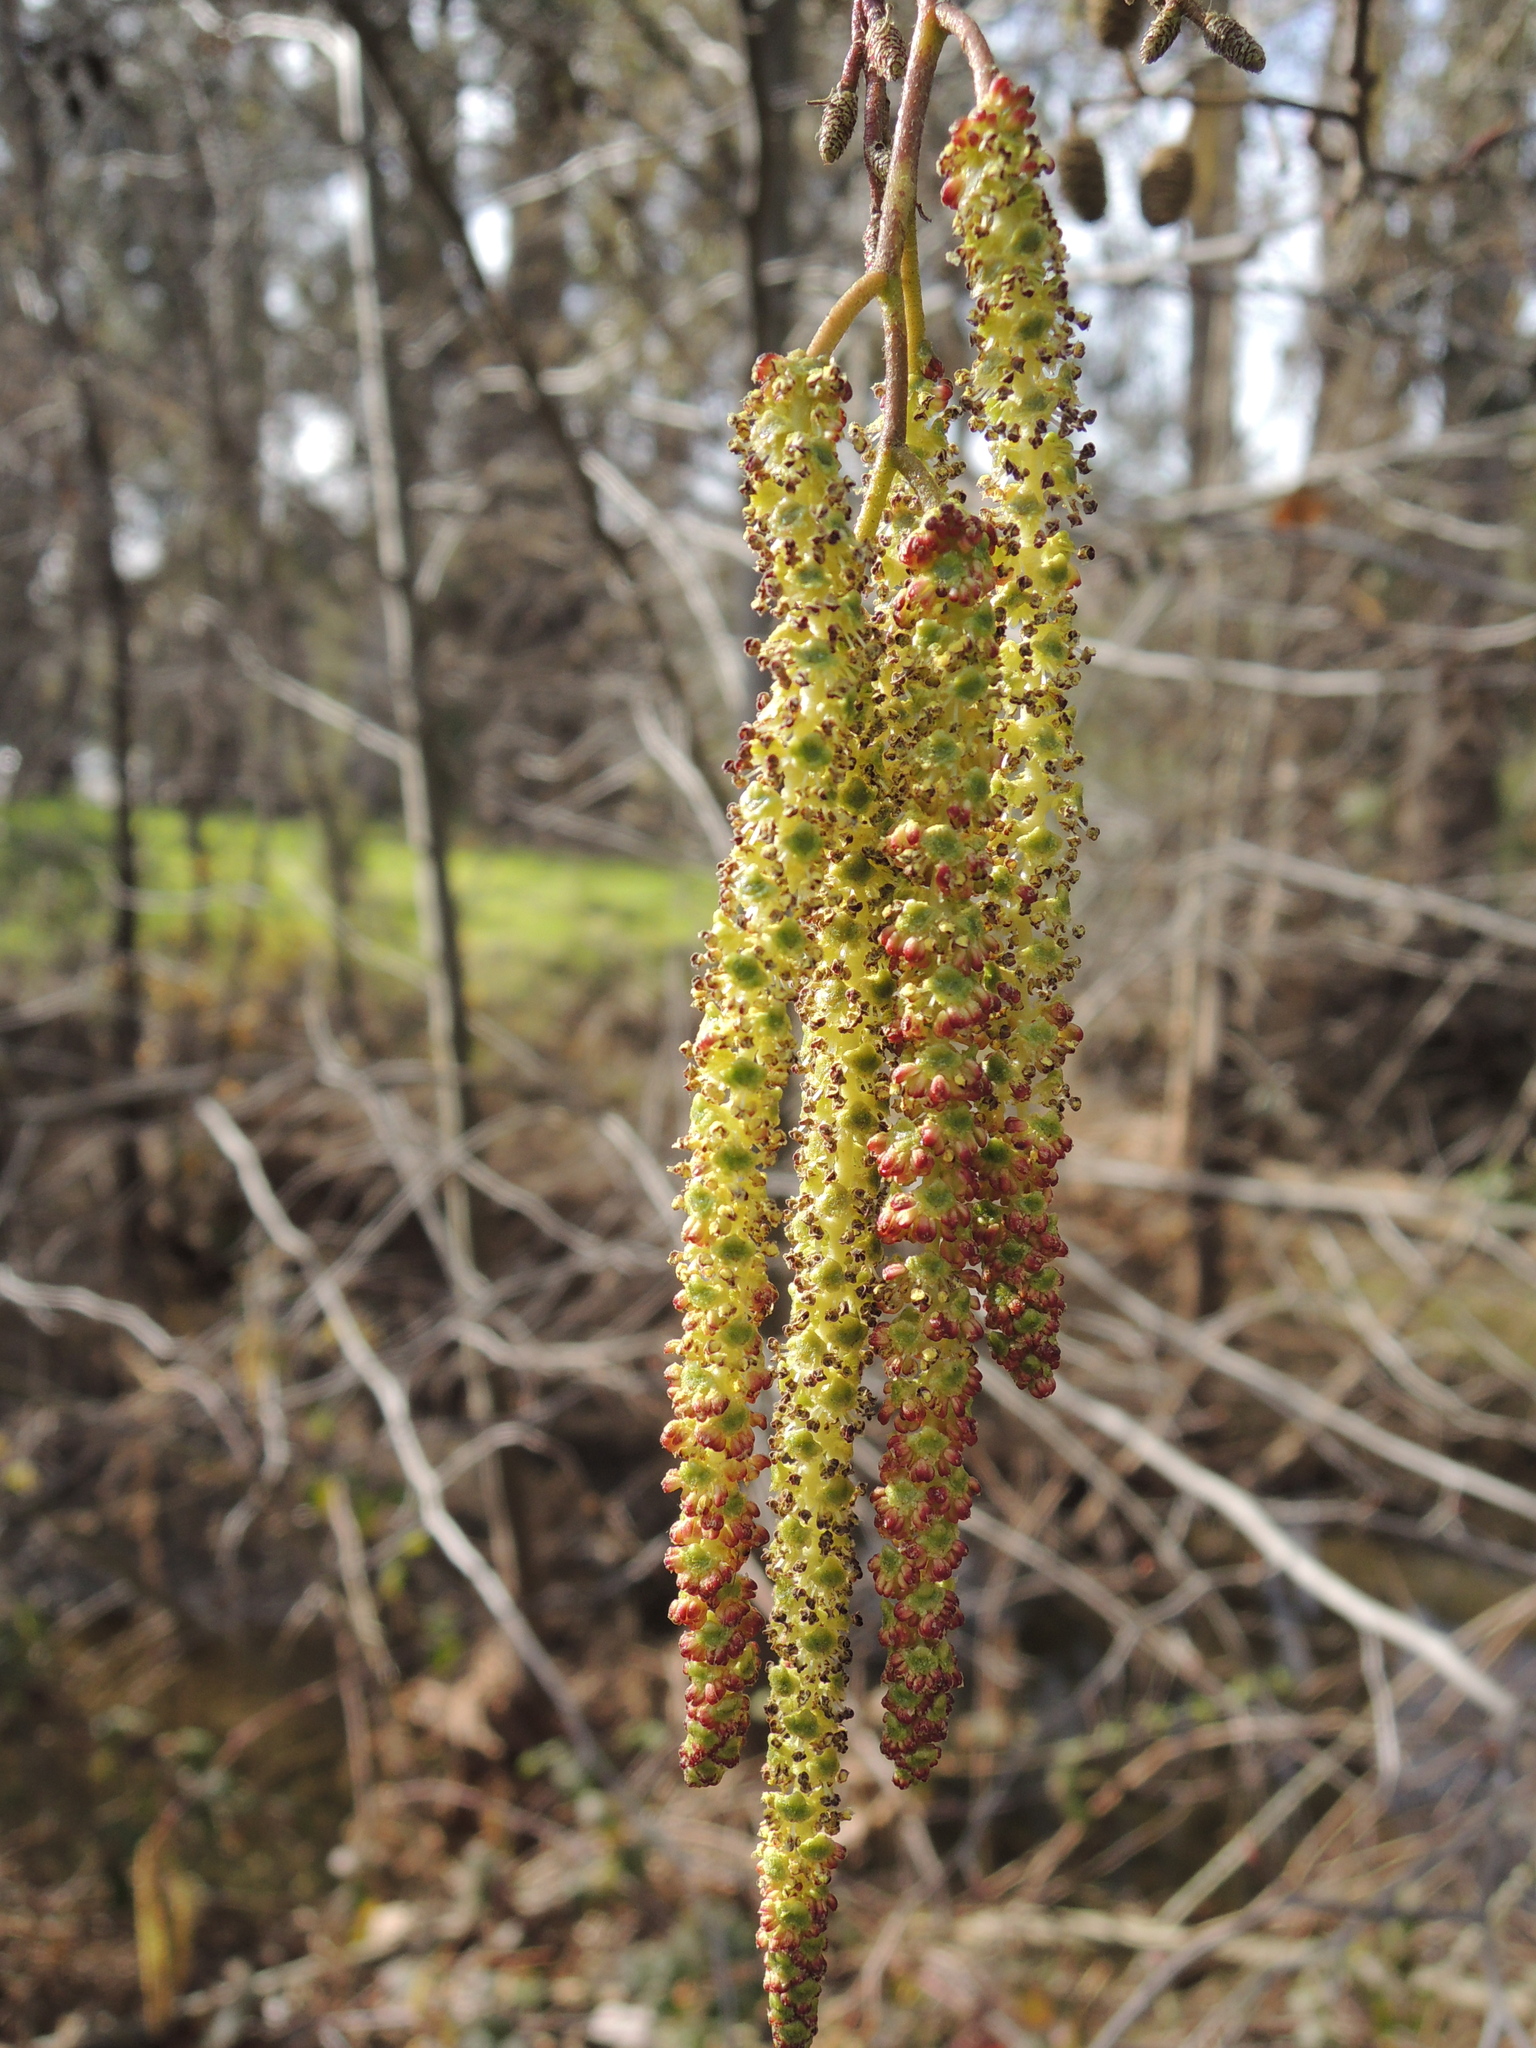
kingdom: Plantae
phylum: Tracheophyta
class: Magnoliopsida
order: Fagales
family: Betulaceae
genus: Alnus
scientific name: Alnus rhombifolia
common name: California alder
